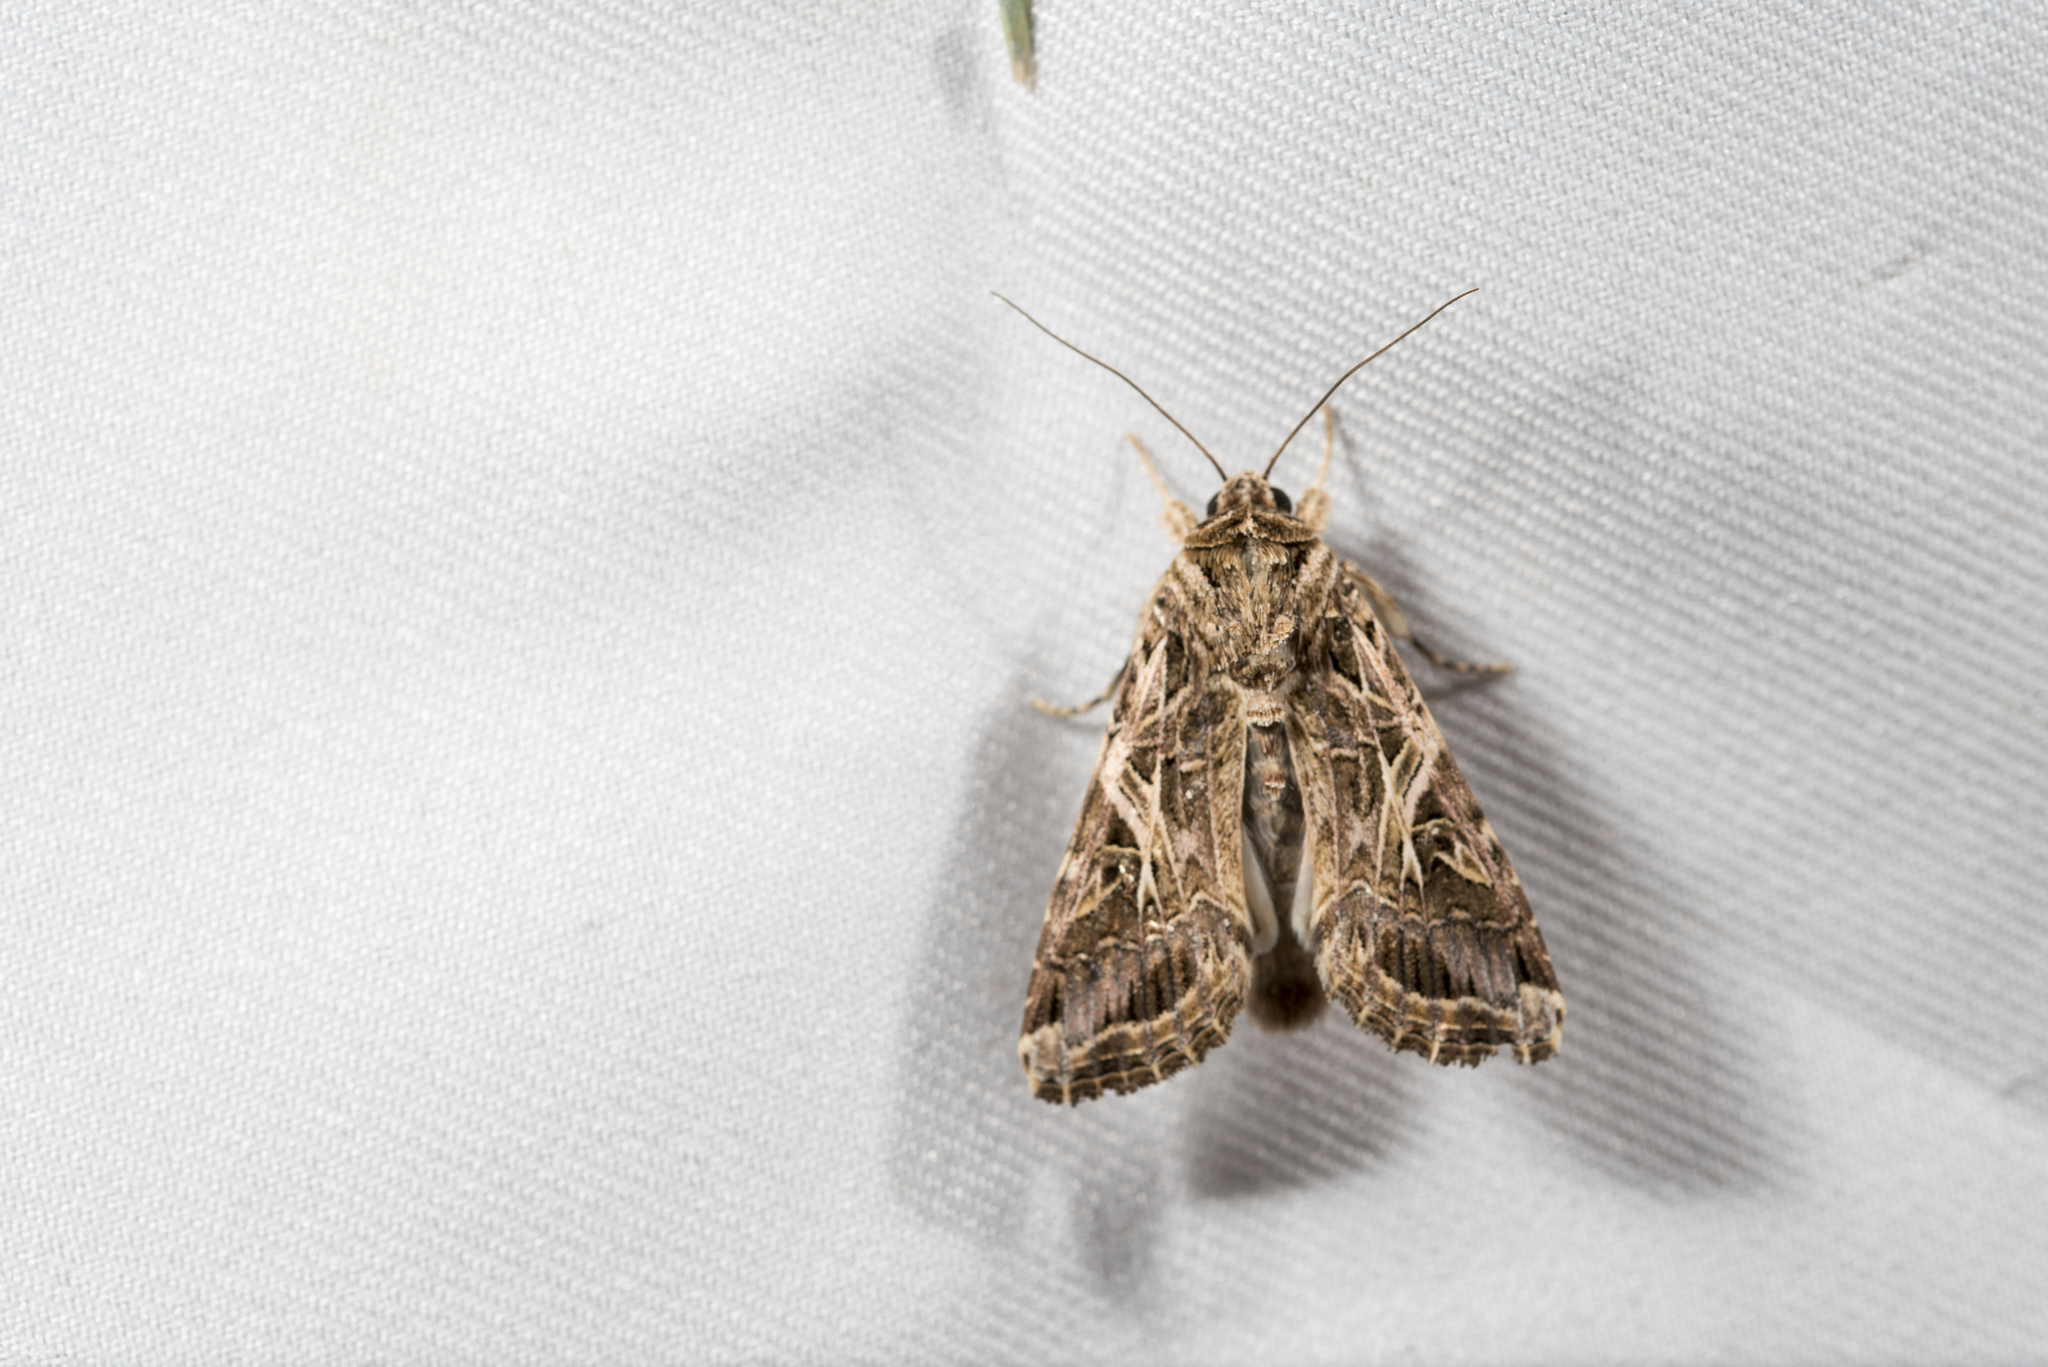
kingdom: Animalia
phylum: Arthropoda
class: Insecta
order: Lepidoptera
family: Noctuidae
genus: Spodoptera
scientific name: Spodoptera litura
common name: Asian cotton leafworm
